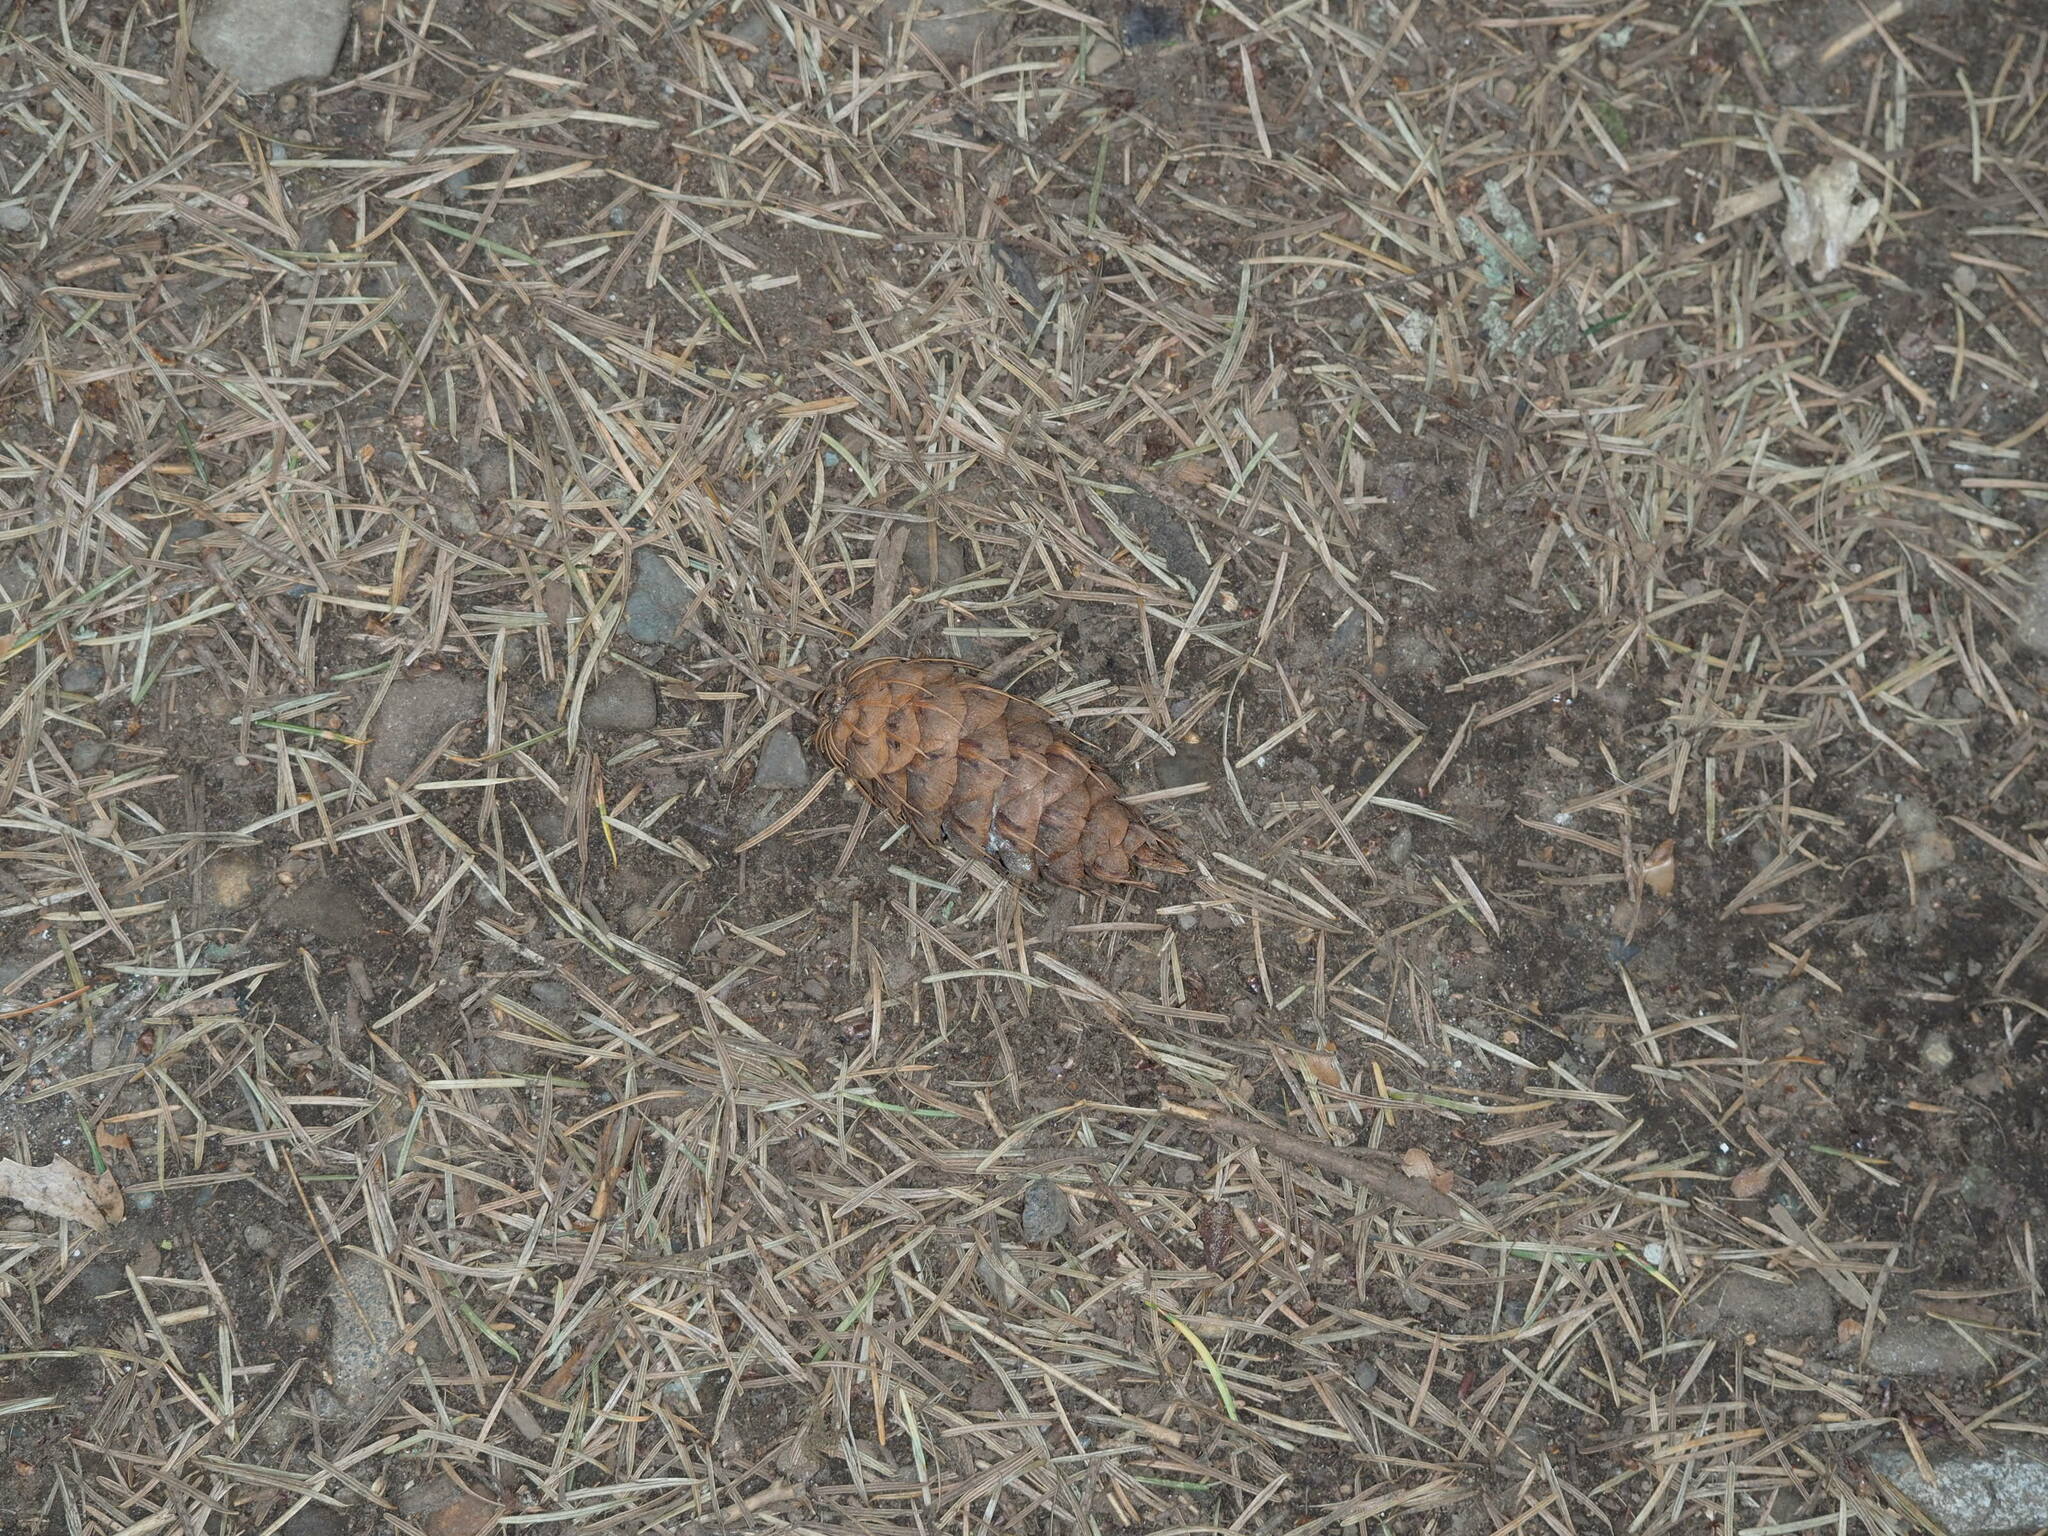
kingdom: Plantae
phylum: Tracheophyta
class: Pinopsida
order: Pinales
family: Pinaceae
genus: Pseudotsuga
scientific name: Pseudotsuga menziesii
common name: Douglas fir
